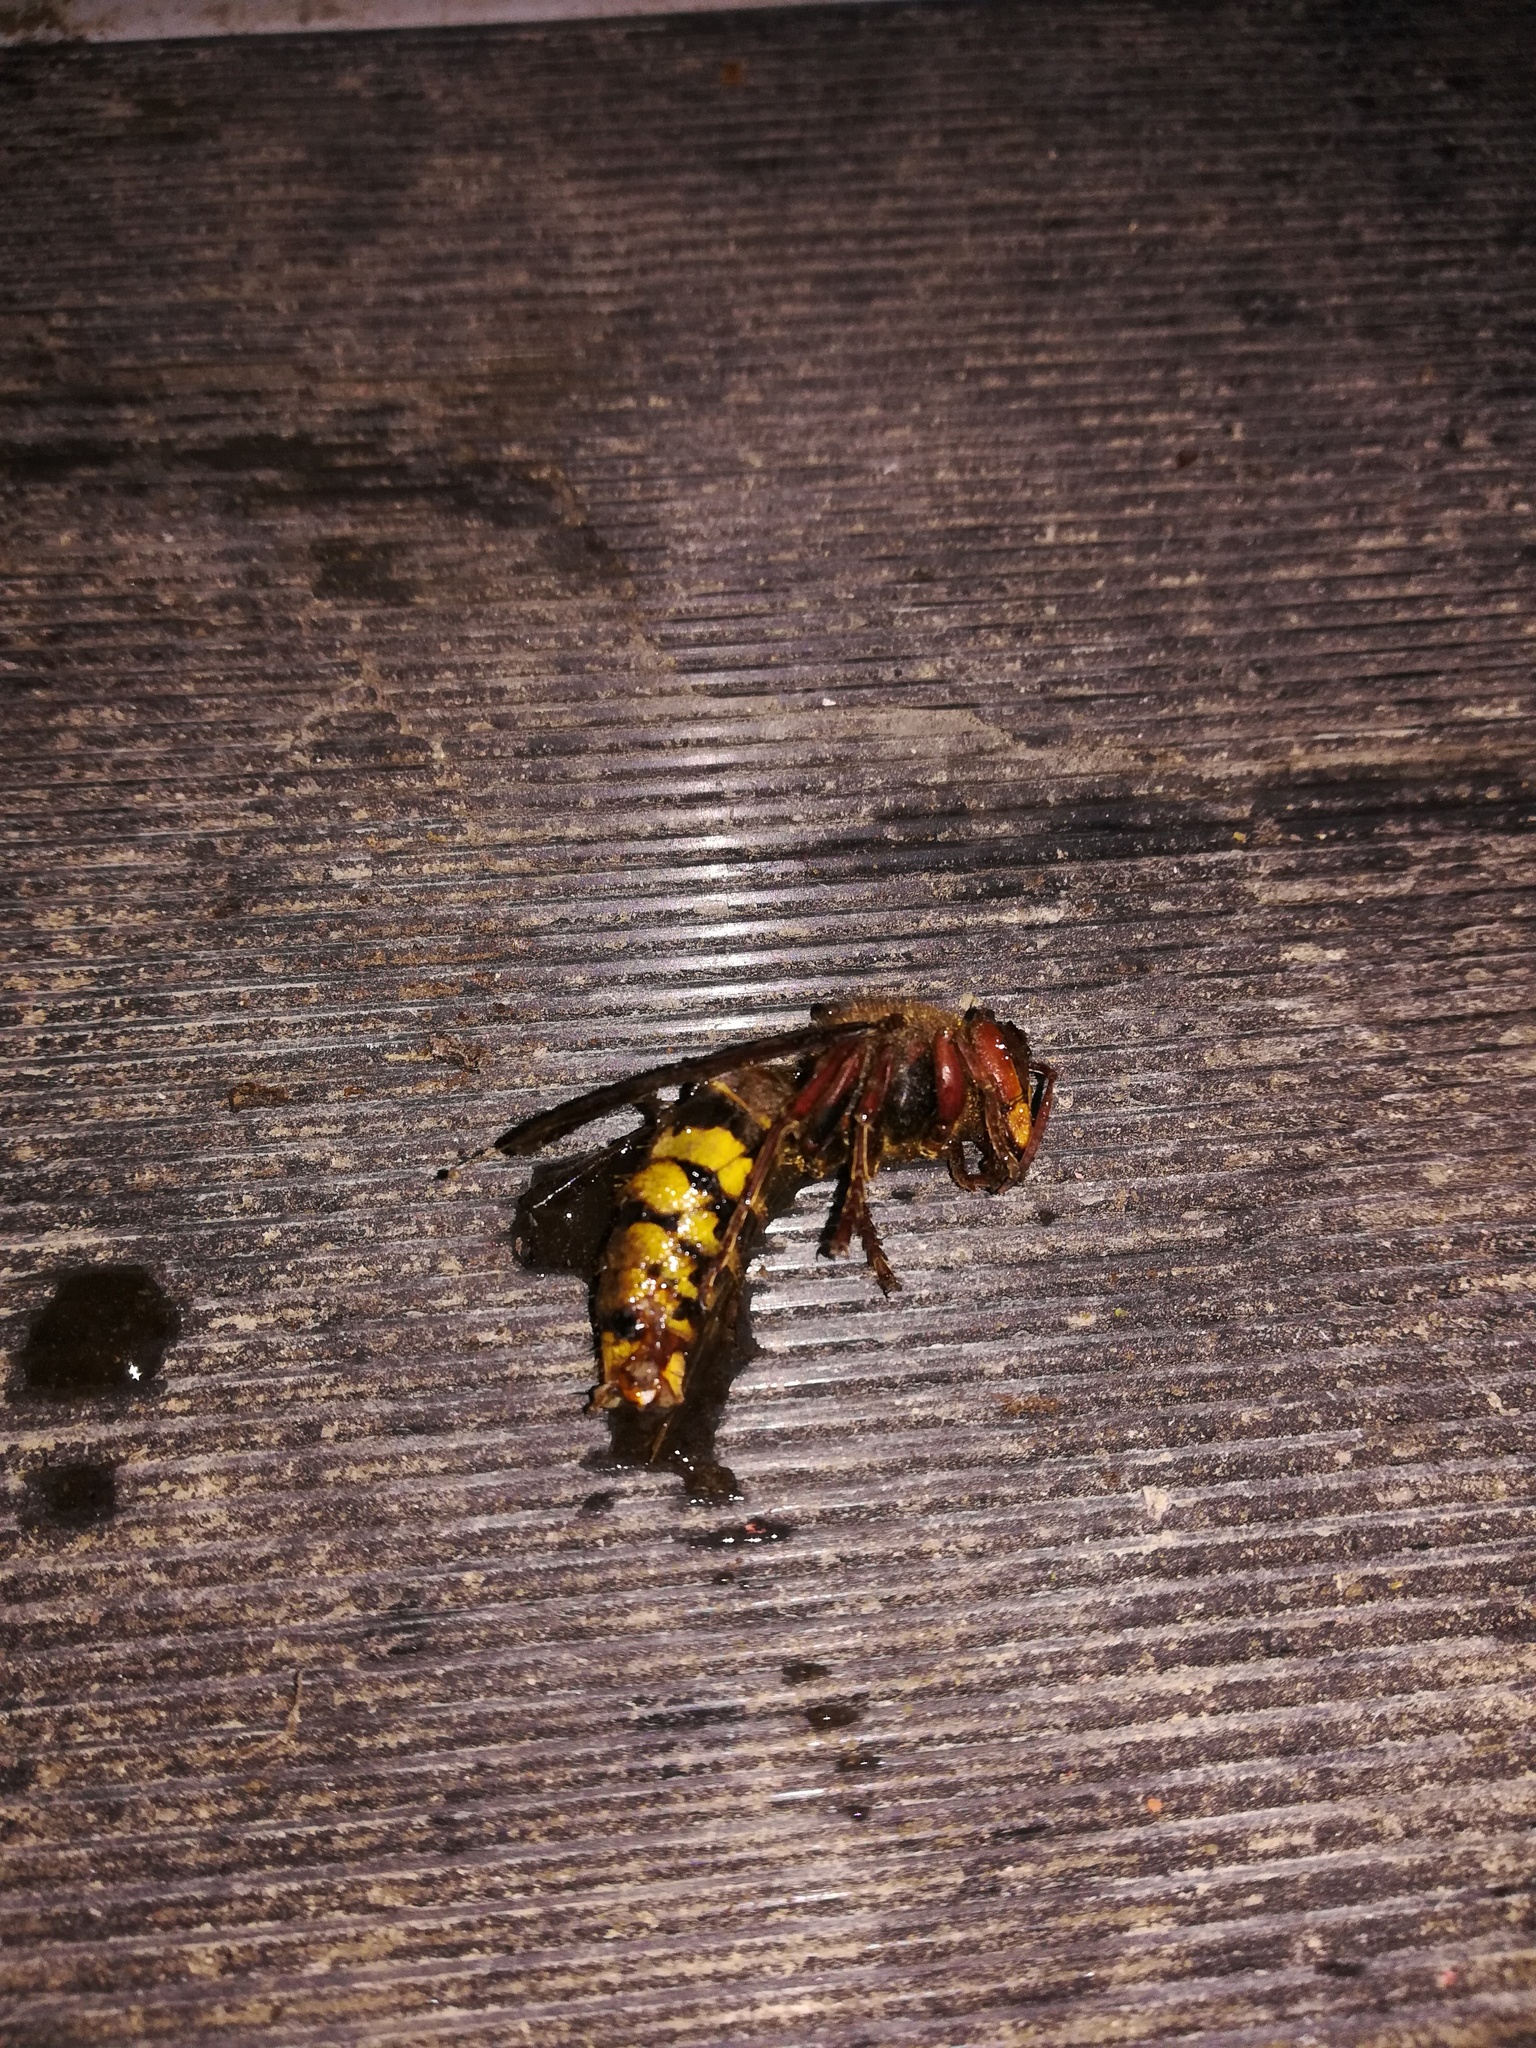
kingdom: Animalia
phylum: Arthropoda
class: Insecta
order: Hymenoptera
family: Vespidae
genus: Vespa
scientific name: Vespa crabro
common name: Hornet
